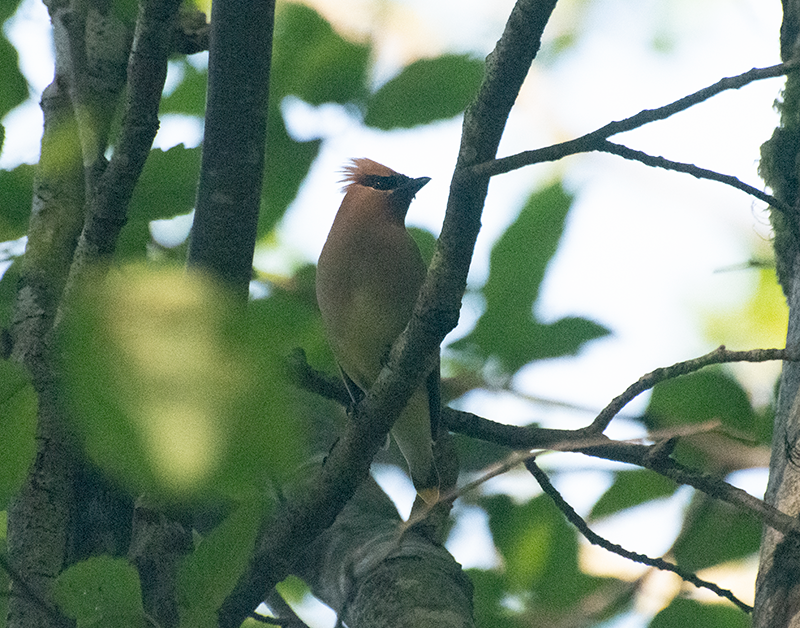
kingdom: Animalia
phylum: Chordata
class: Aves
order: Passeriformes
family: Bombycillidae
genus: Bombycilla
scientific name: Bombycilla cedrorum
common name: Cedar waxwing
